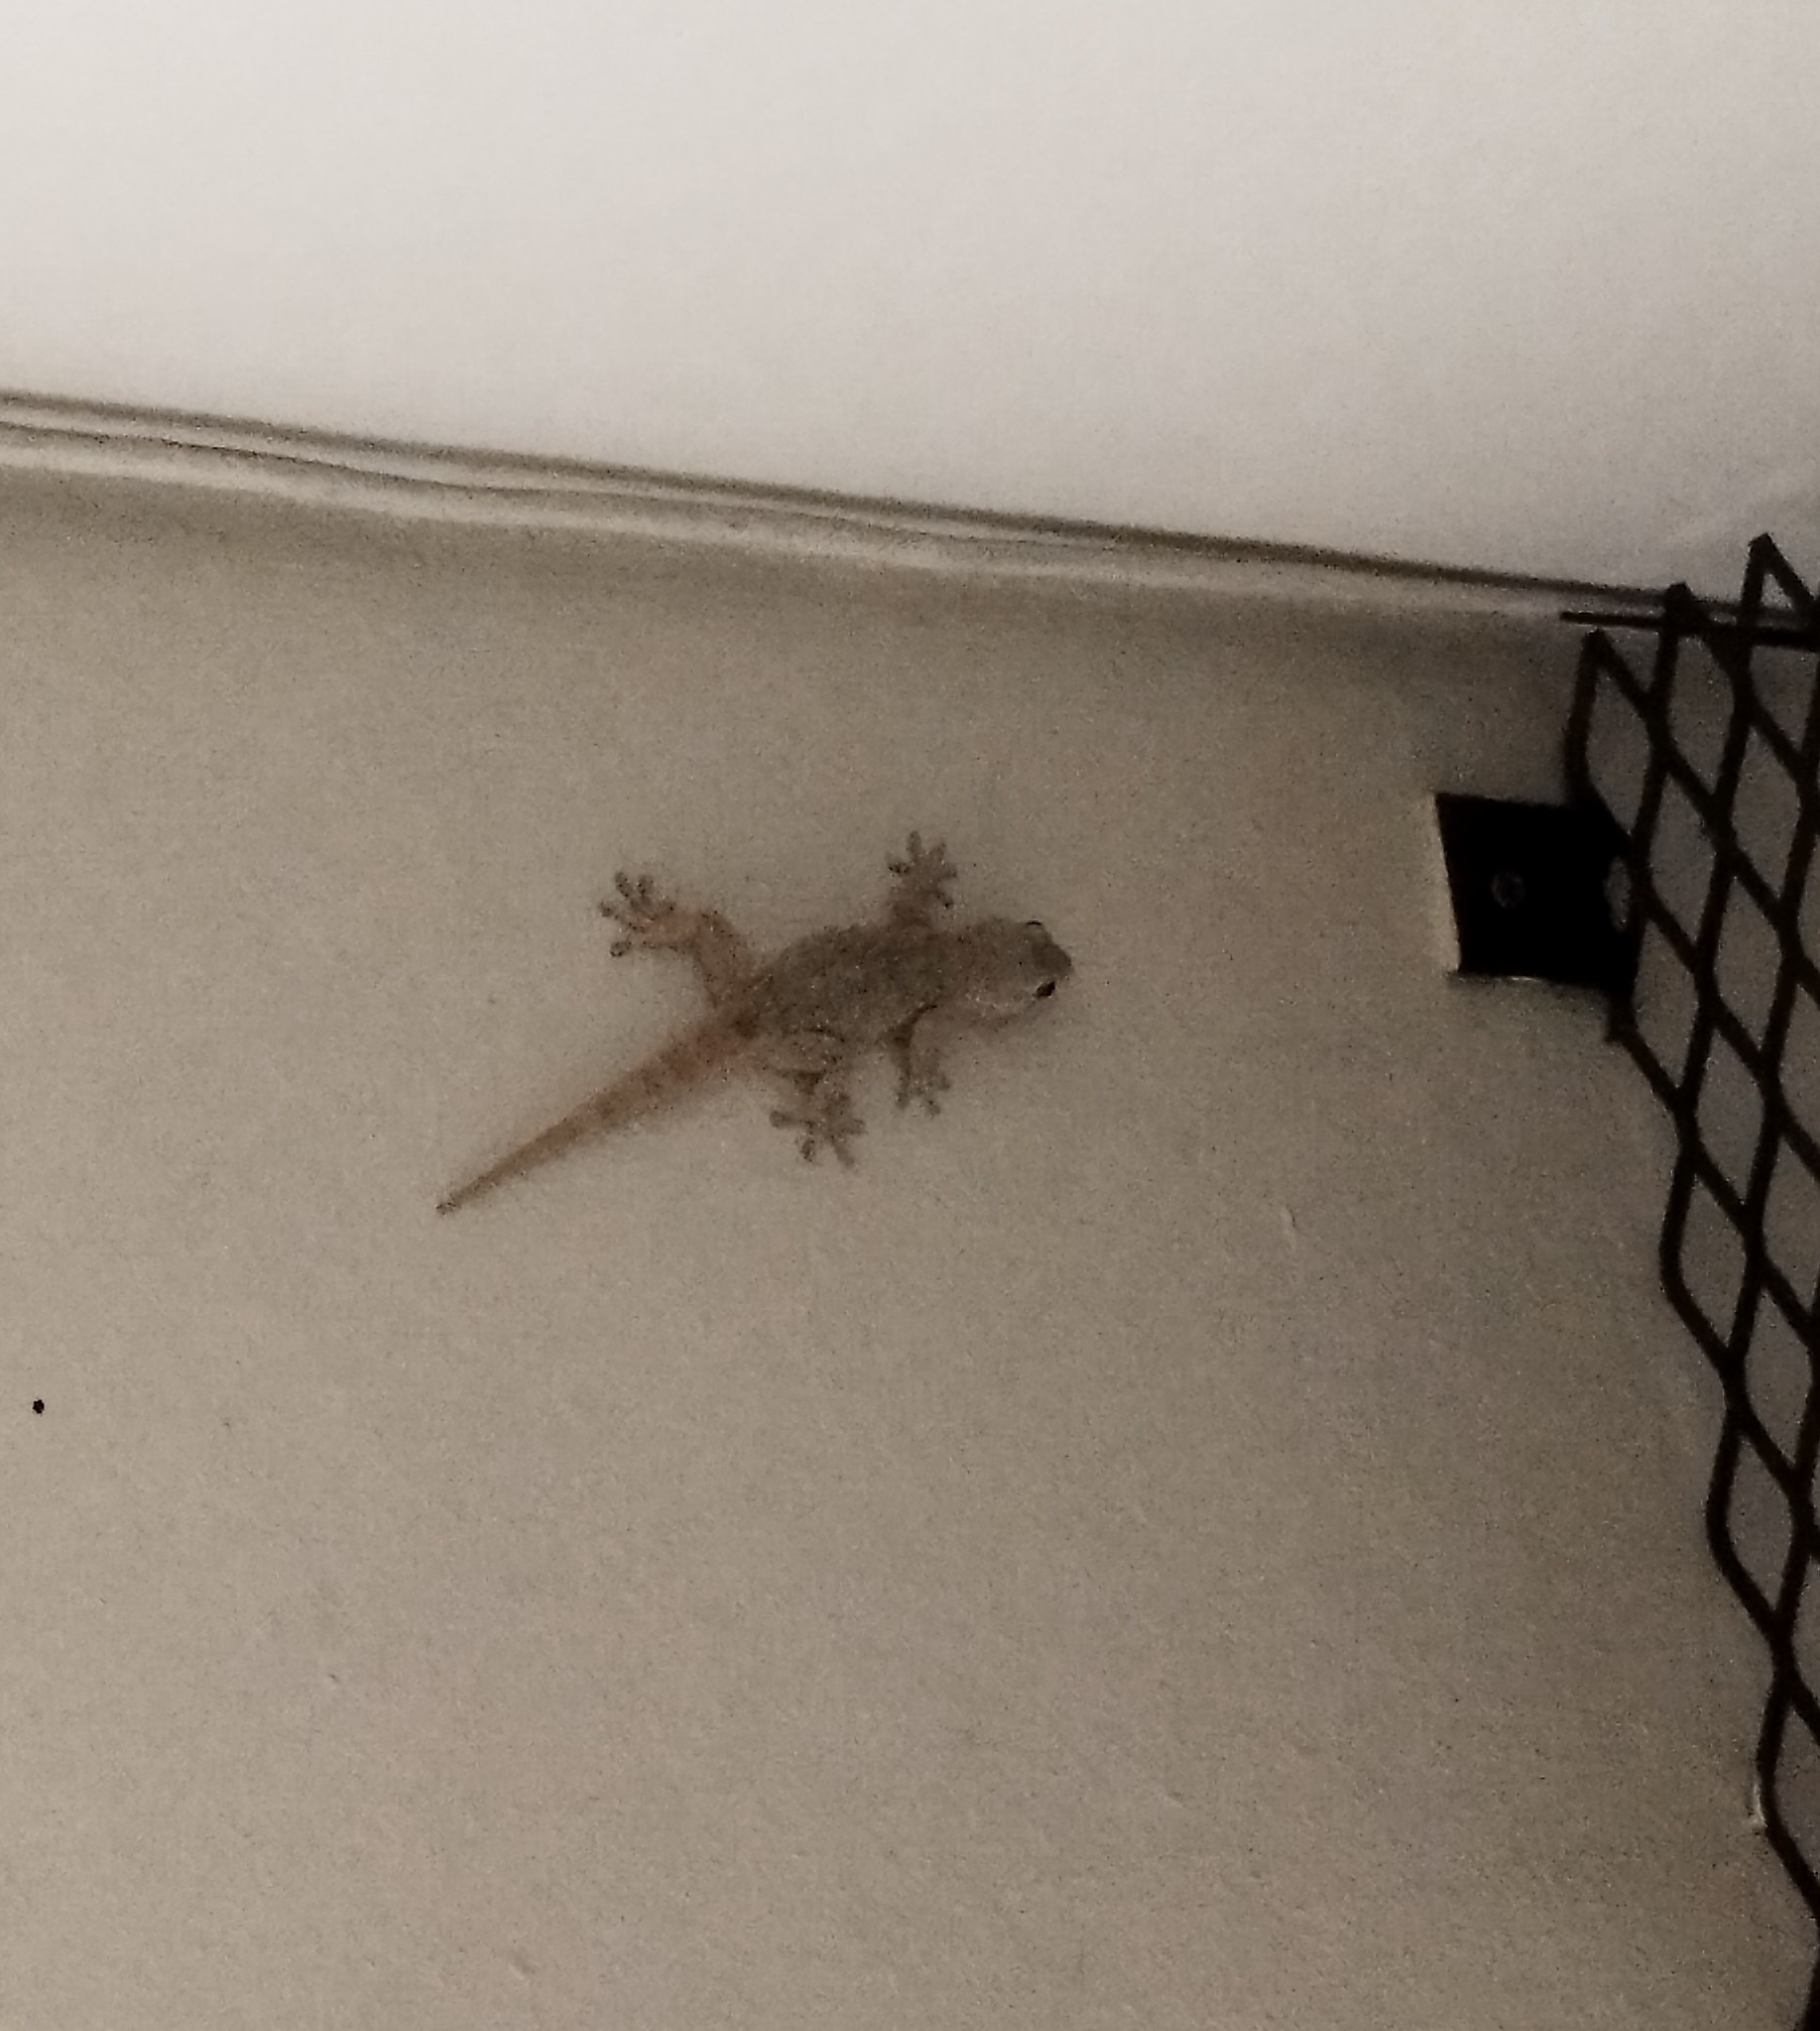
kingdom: Animalia
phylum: Chordata
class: Squamata
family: Phyllodactylidae
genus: Tarentola
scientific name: Tarentola mauritanica
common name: Moorish gecko
